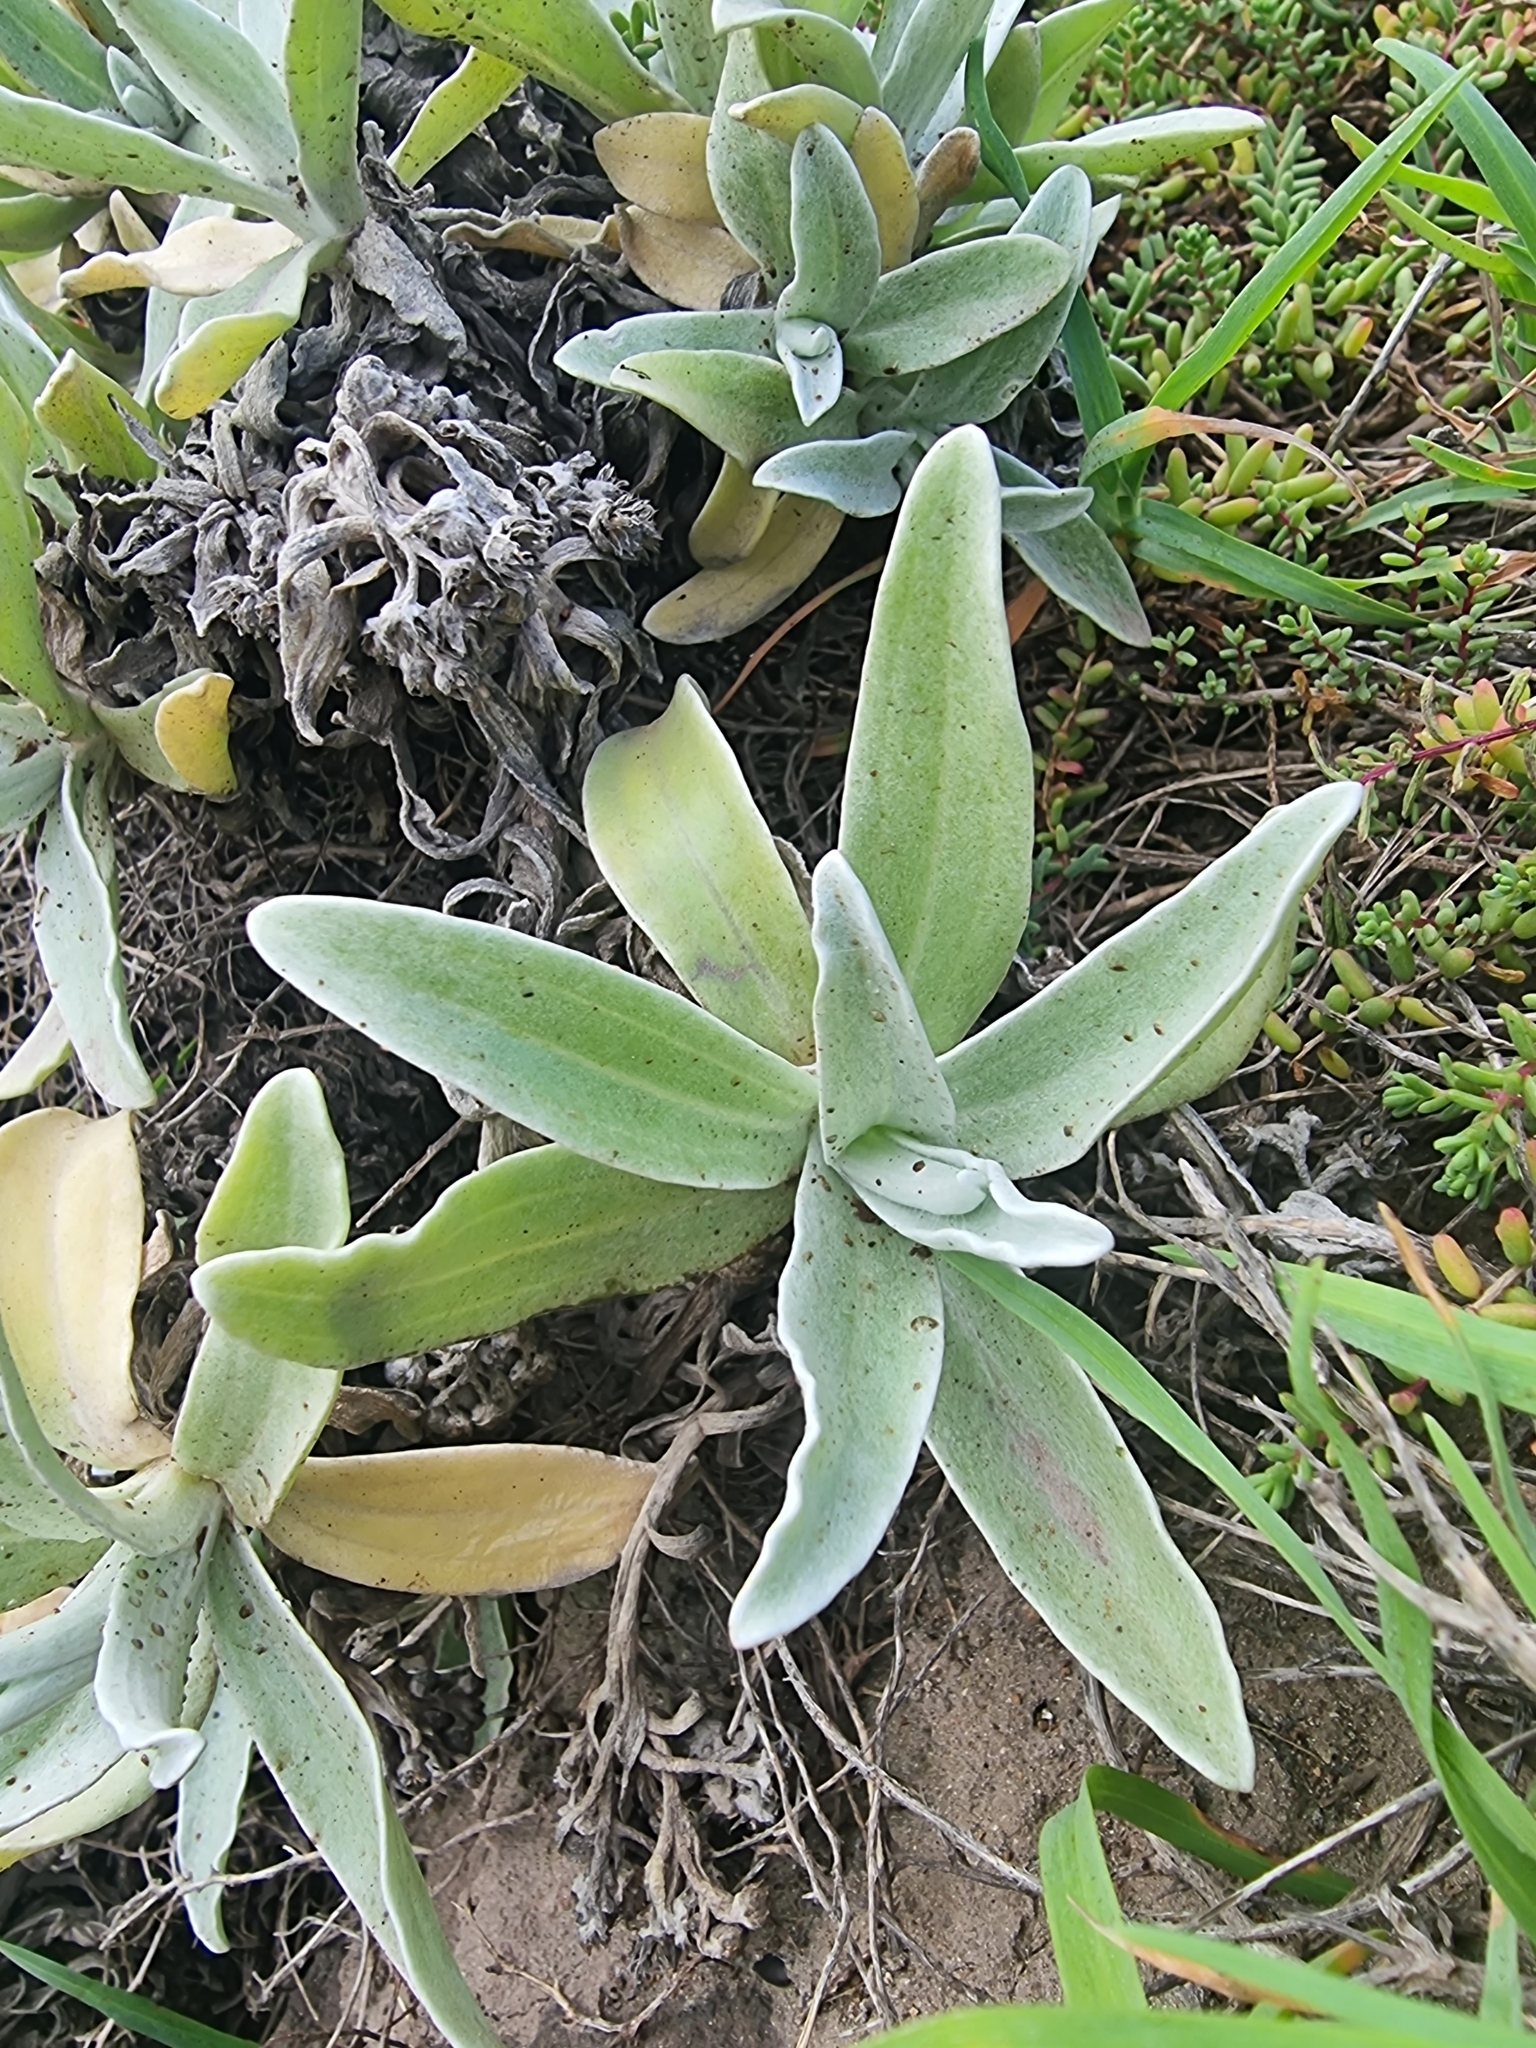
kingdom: Plantae
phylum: Tracheophyta
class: Magnoliopsida
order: Asterales
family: Asteraceae
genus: Helichrysum
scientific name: Helichrysum devium
